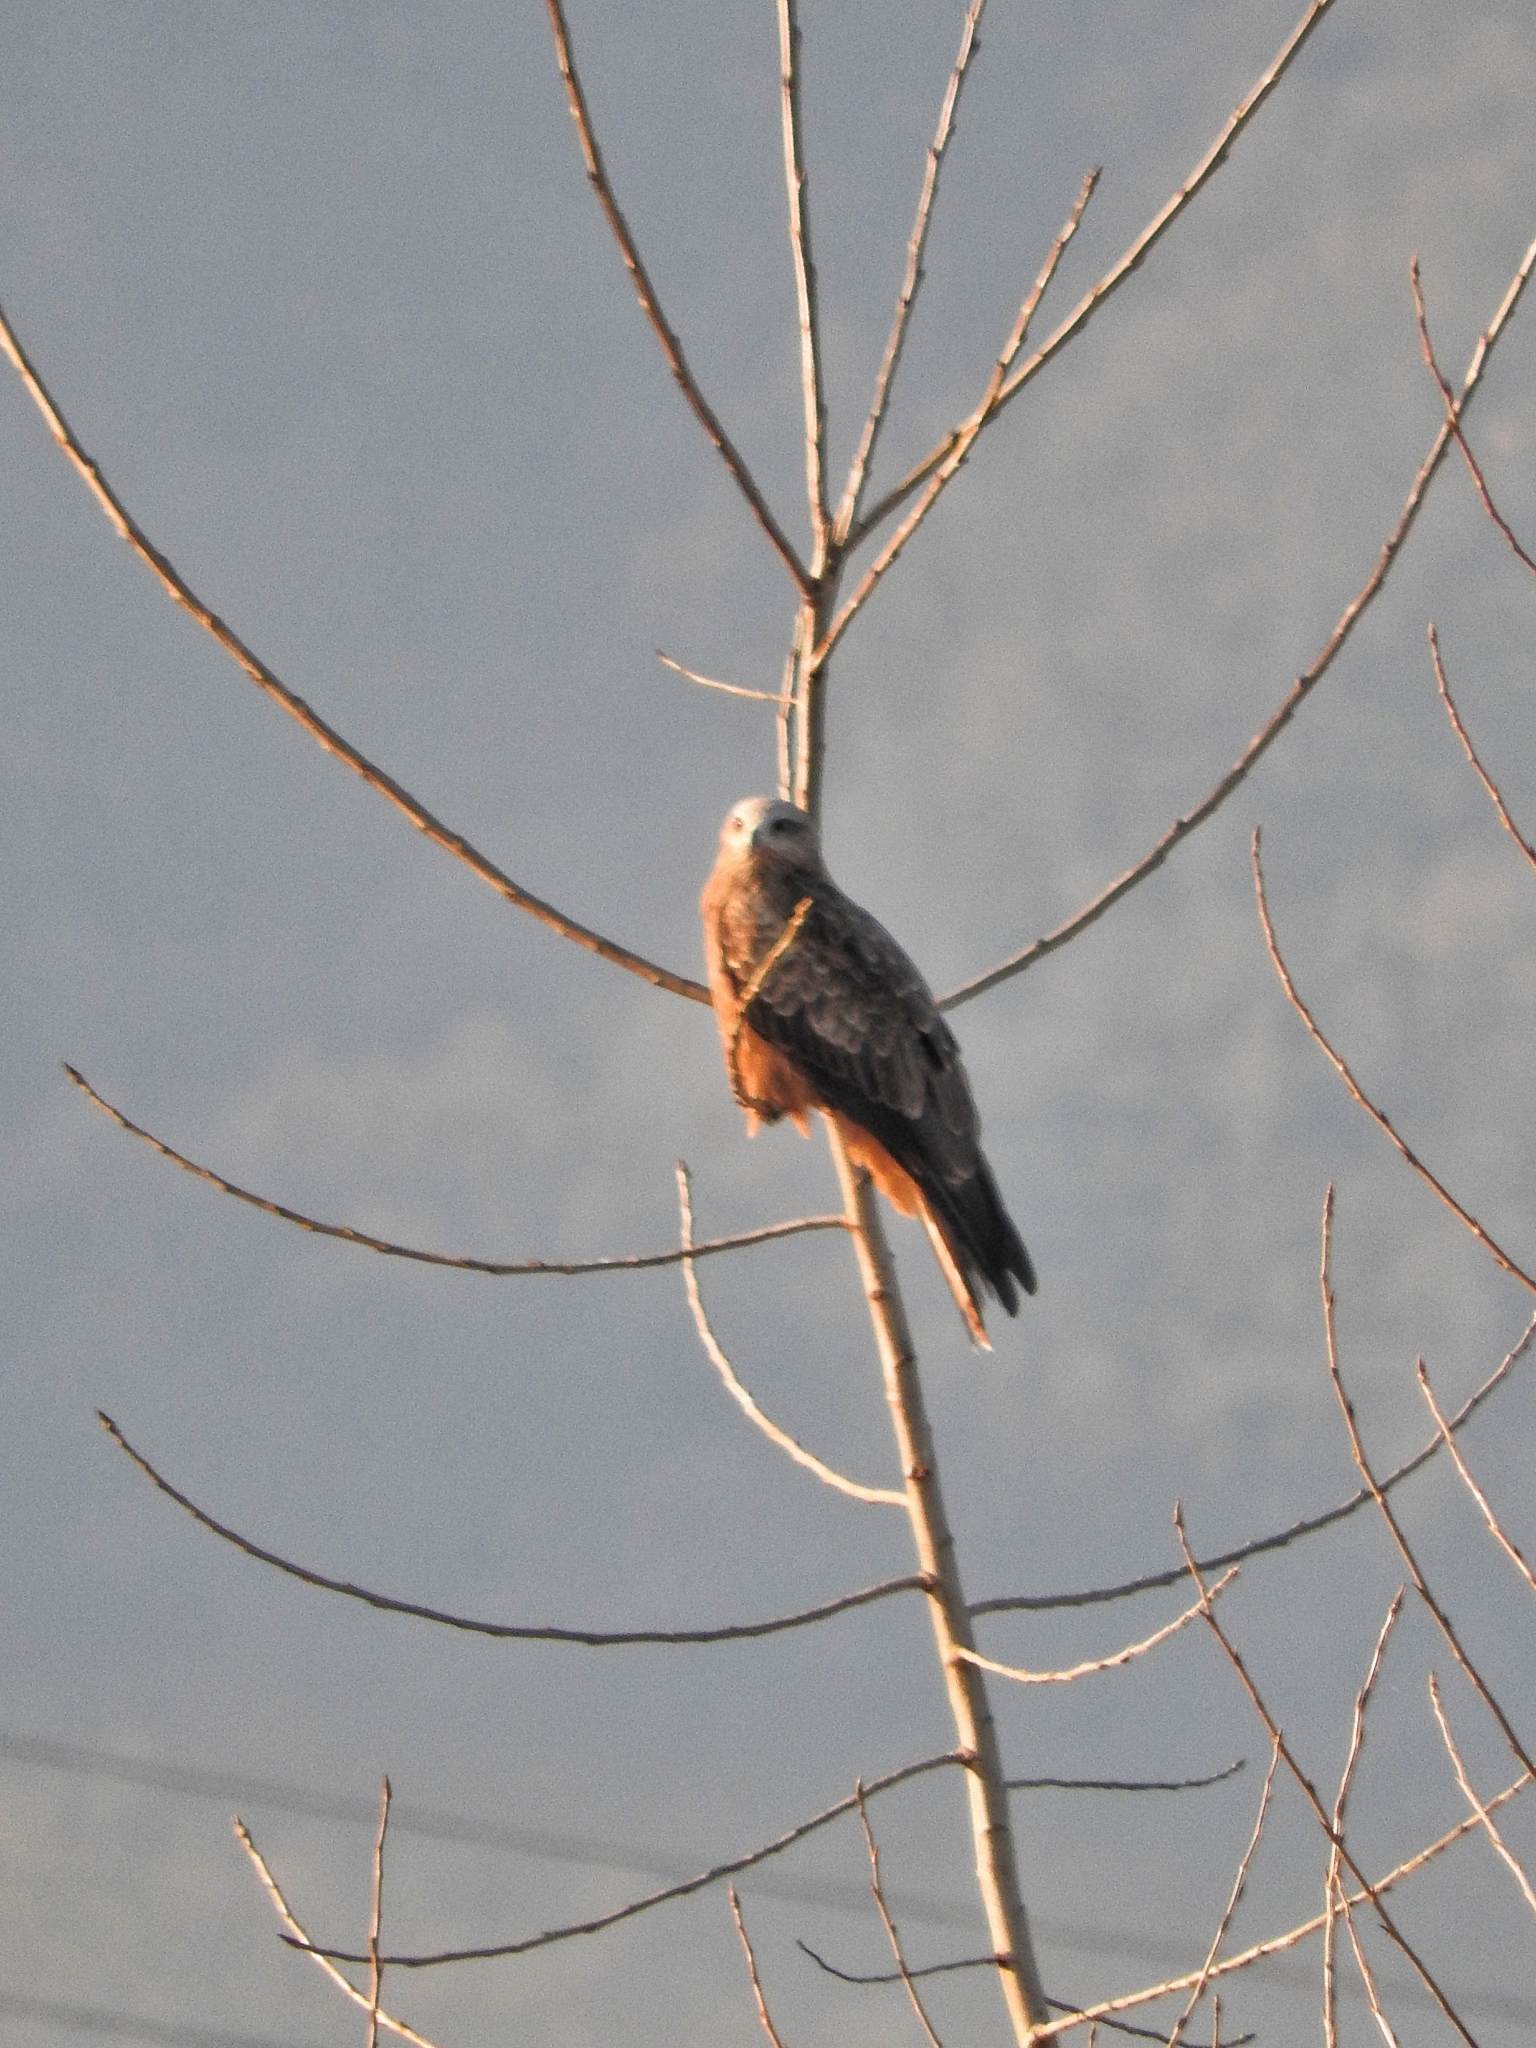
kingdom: Animalia
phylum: Chordata
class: Aves
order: Accipitriformes
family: Accipitridae
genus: Milvus
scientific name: Milvus migrans
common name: Black kite
